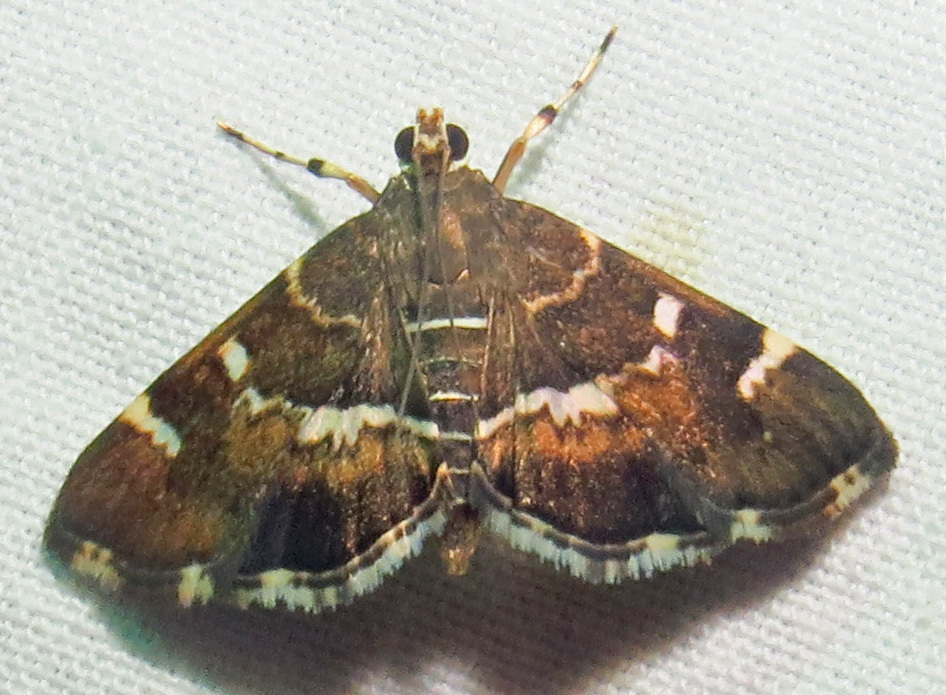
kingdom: Animalia
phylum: Arthropoda
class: Insecta
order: Lepidoptera
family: Crambidae
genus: Hymenia
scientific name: Hymenia perspectalis
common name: Spotted beet webworm
